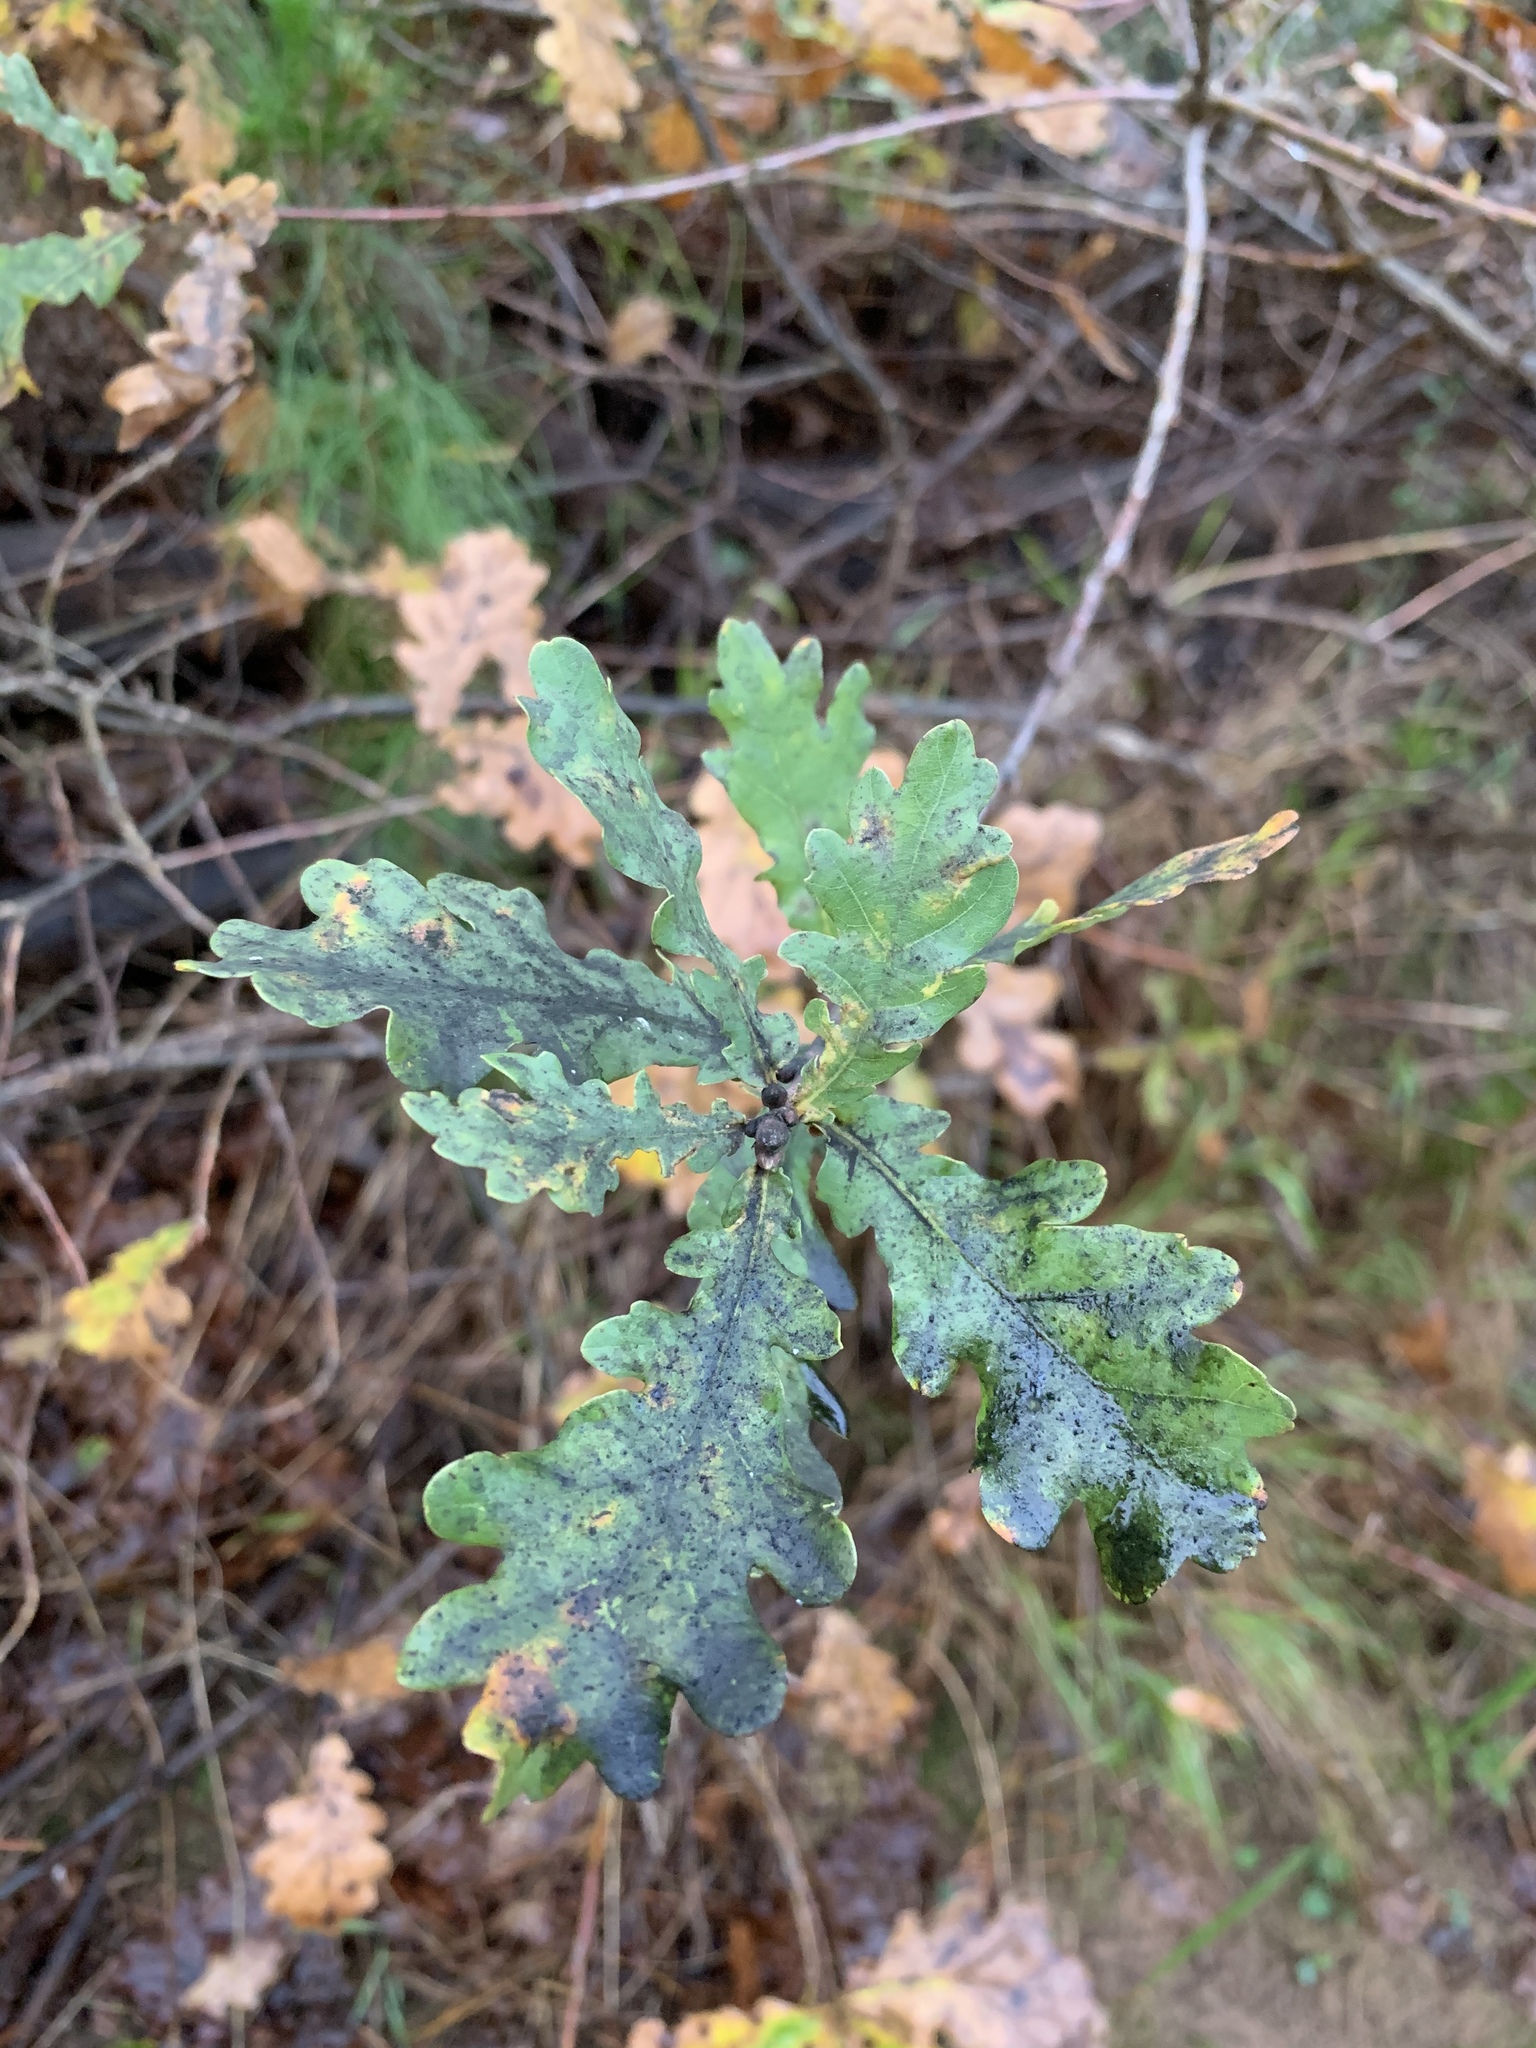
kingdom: Plantae
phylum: Tracheophyta
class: Magnoliopsida
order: Fagales
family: Fagaceae
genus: Quercus
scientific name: Quercus robur
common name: Pedunculate oak
